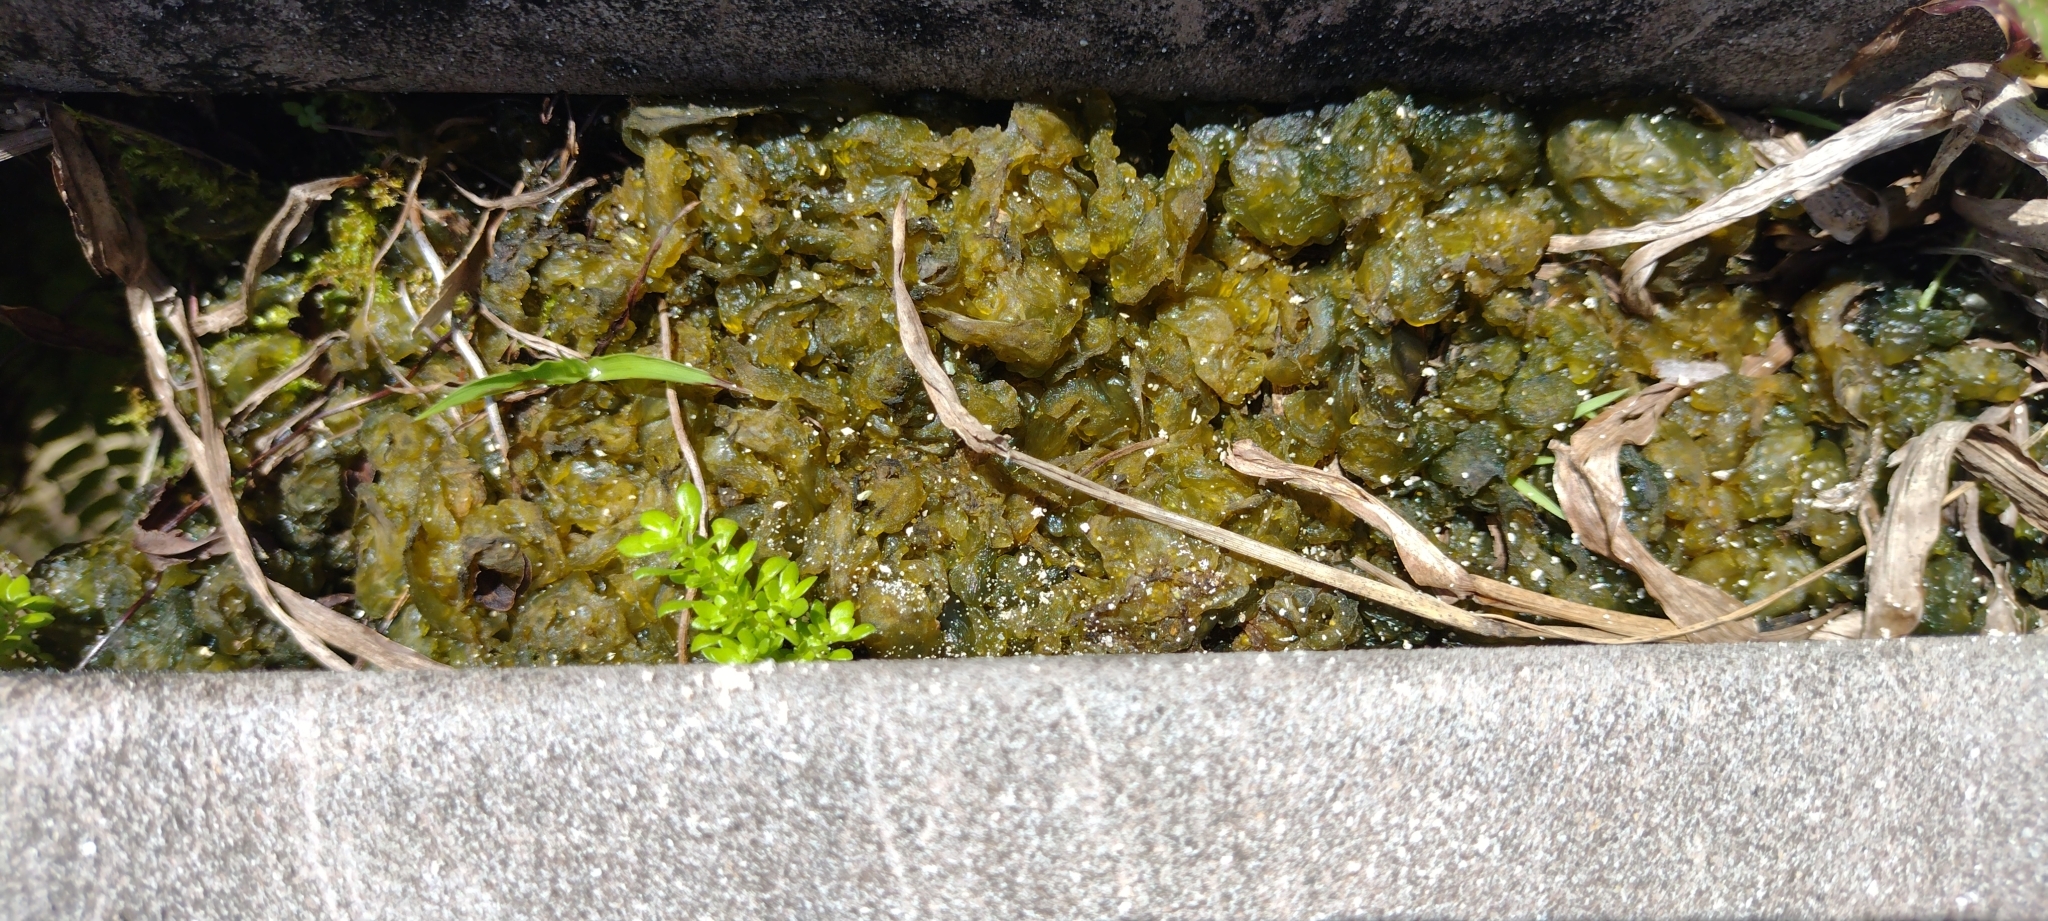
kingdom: Bacteria
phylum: Cyanobacteria
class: Cyanobacteriia
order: Cyanobacteriales
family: Nostocaceae
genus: Nostoc
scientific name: Nostoc commune
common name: Star jelly
